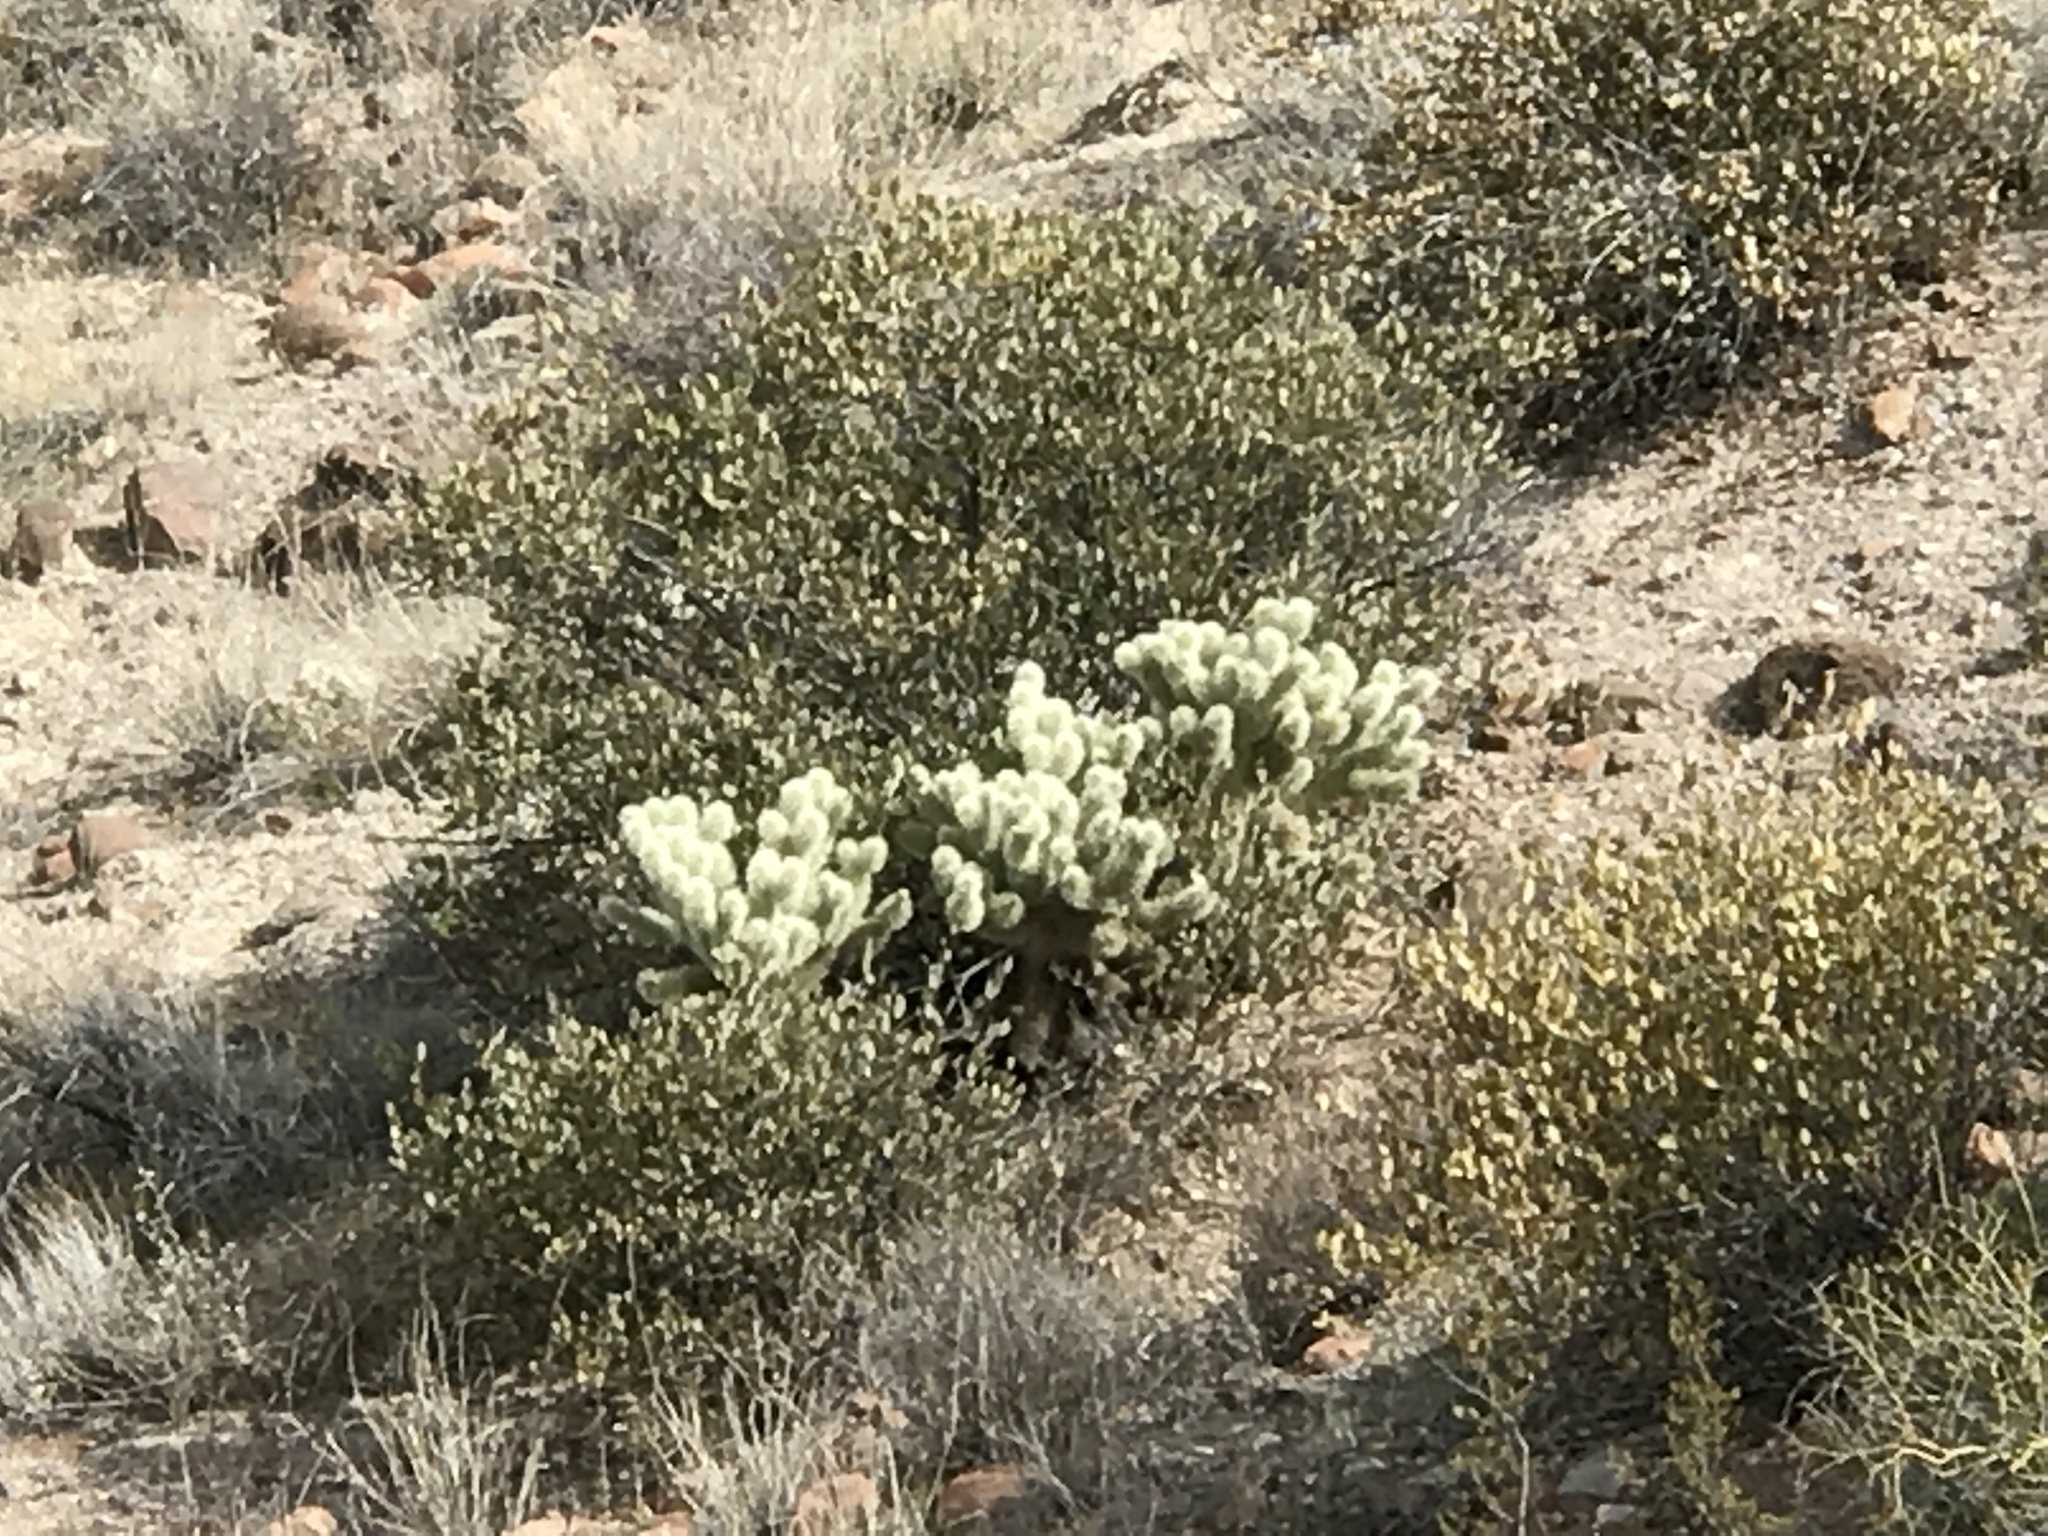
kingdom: Plantae
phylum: Tracheophyta
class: Magnoliopsida
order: Caryophyllales
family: Cactaceae
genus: Cylindropuntia
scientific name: Cylindropuntia fosbergii
